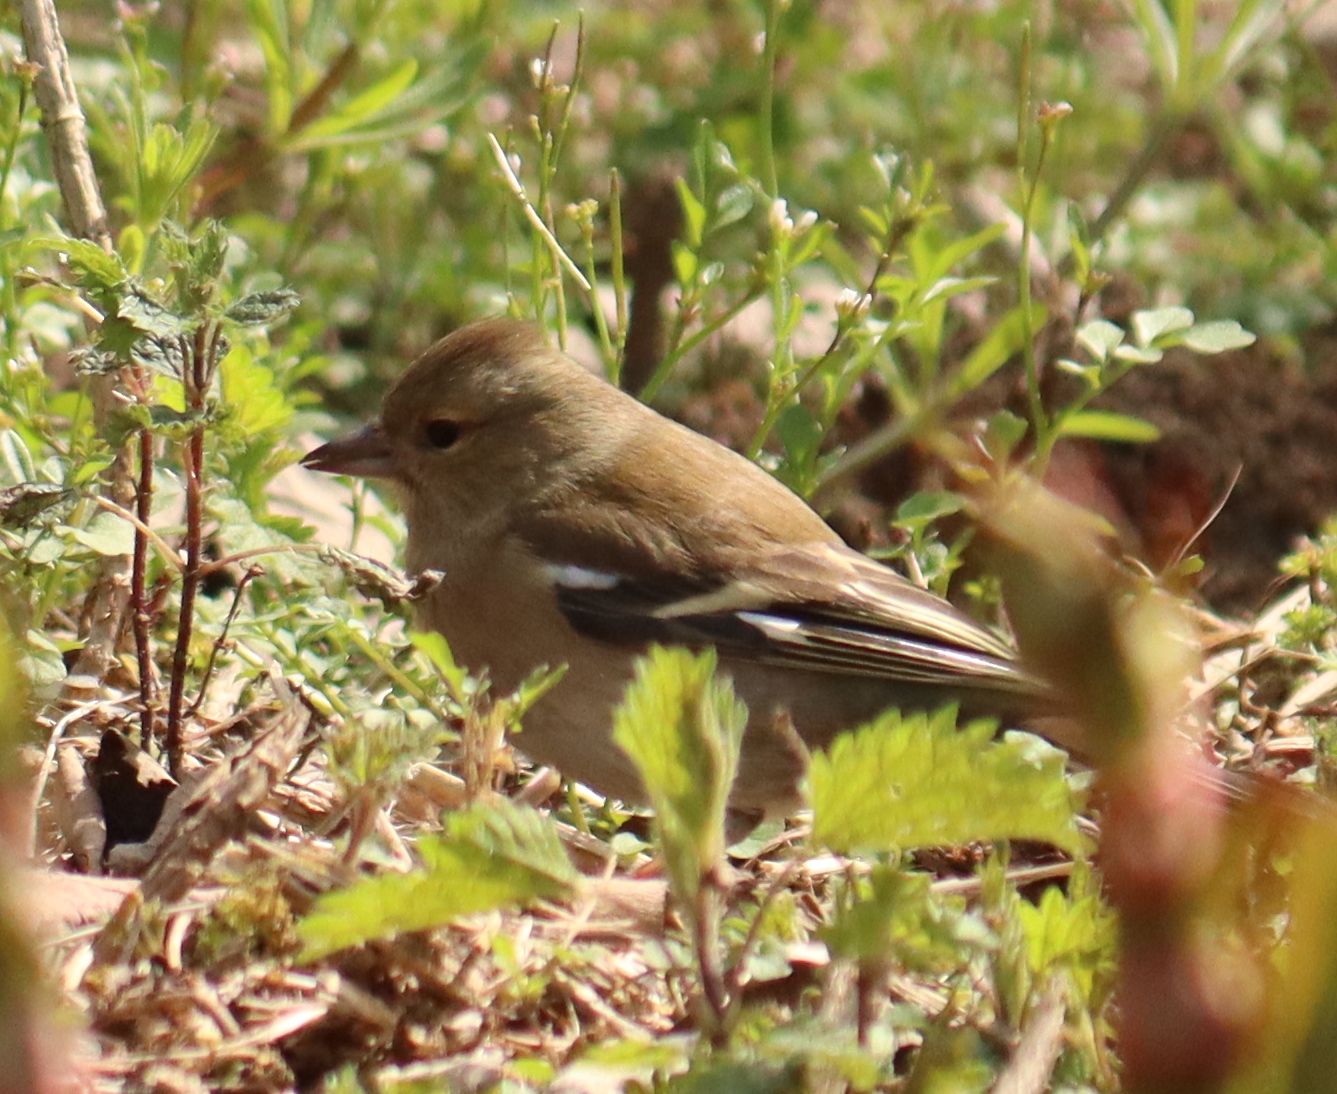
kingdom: Animalia
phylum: Chordata
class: Aves
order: Passeriformes
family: Fringillidae
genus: Fringilla
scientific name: Fringilla coelebs
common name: Common chaffinch
